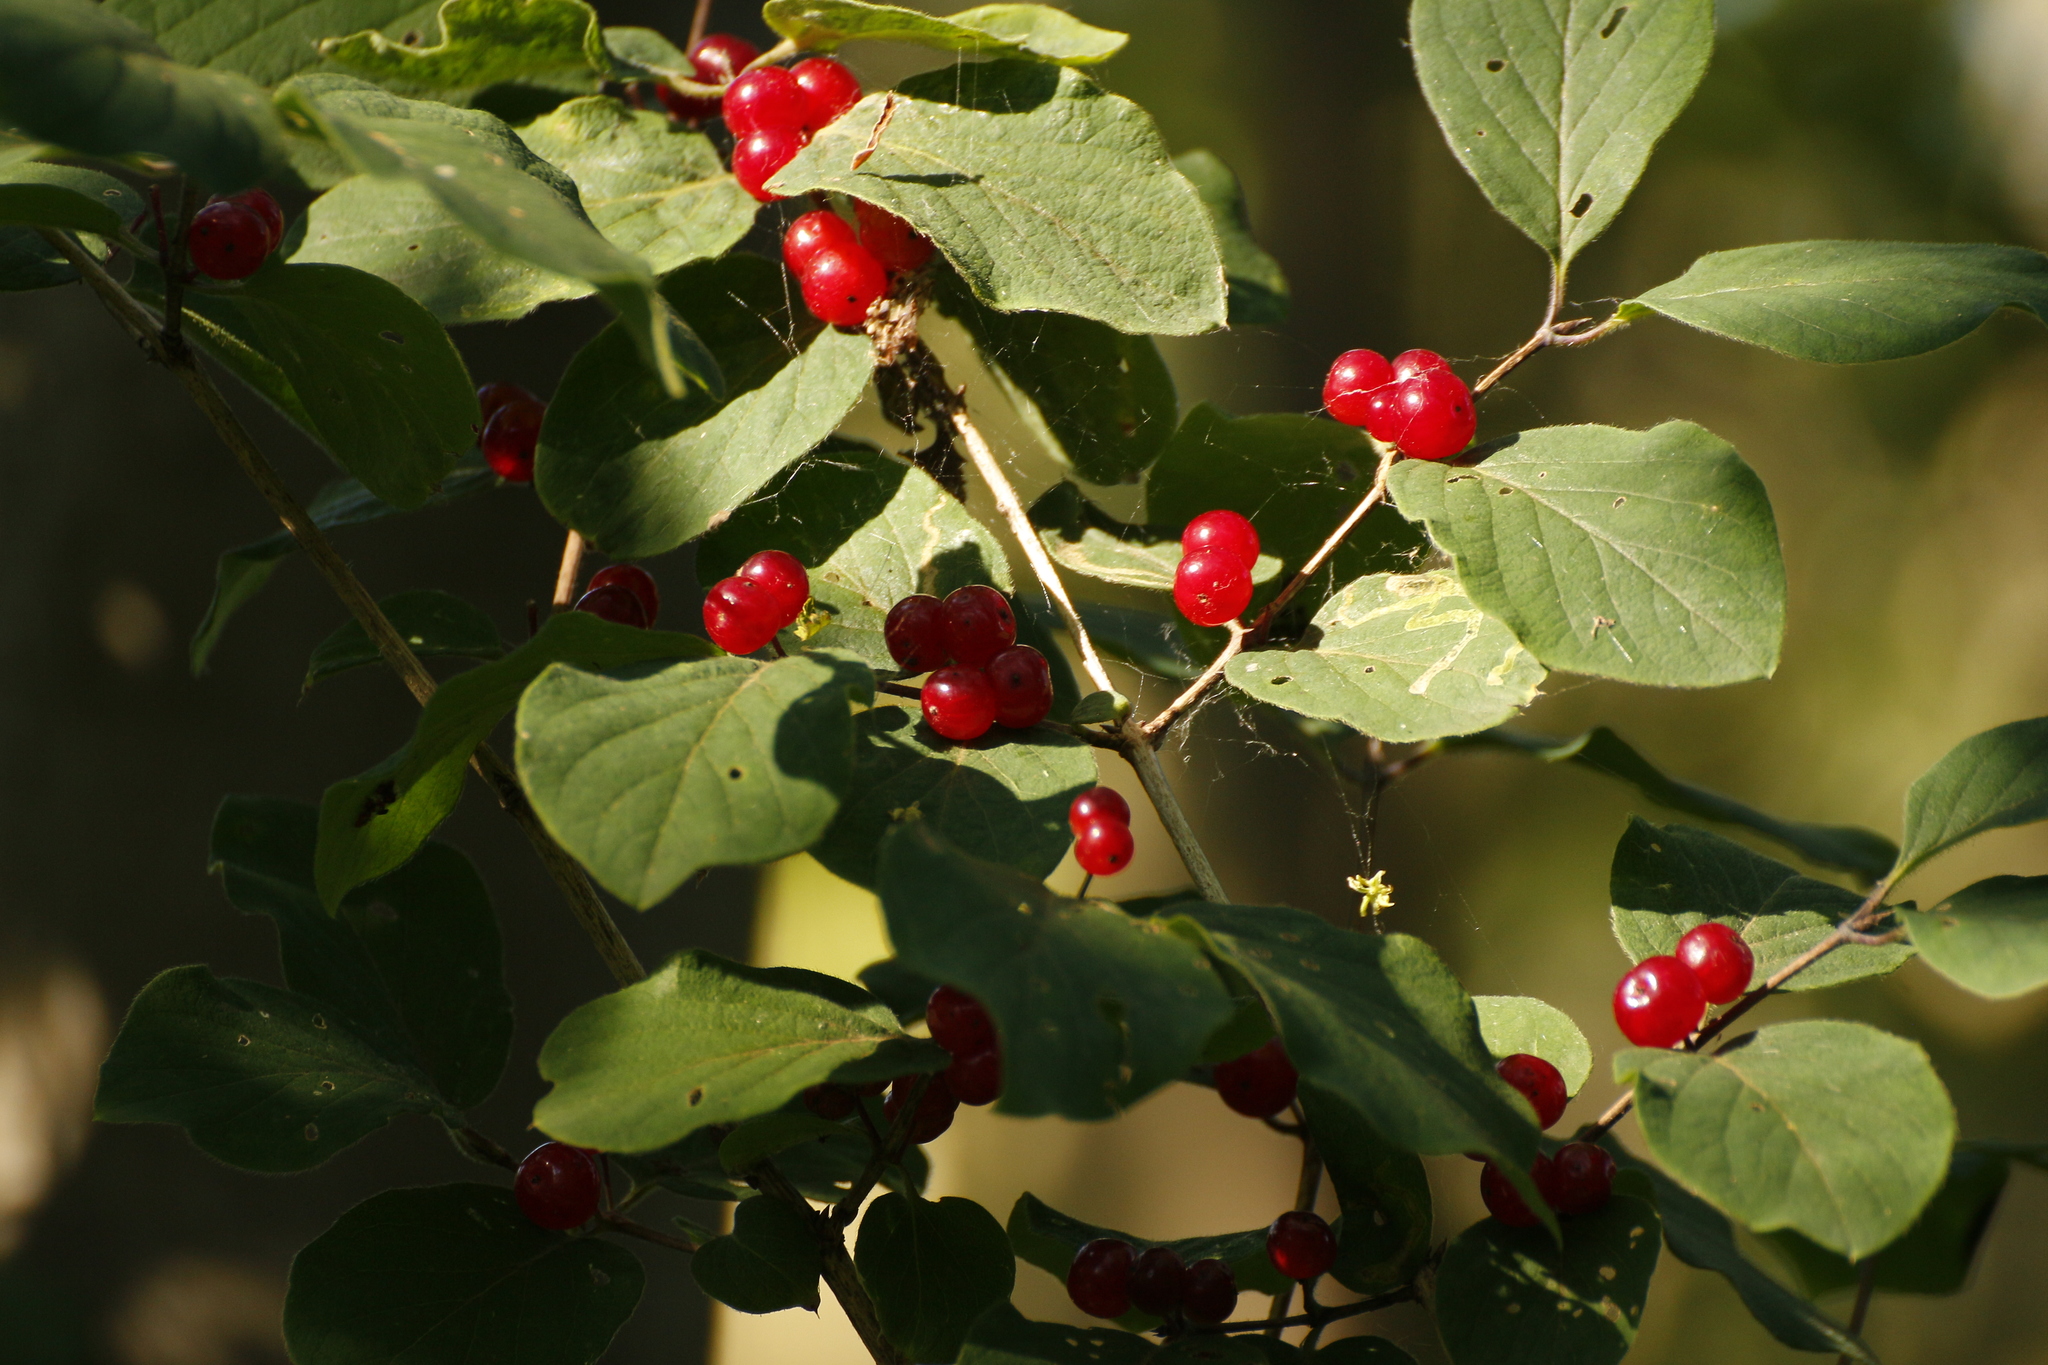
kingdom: Plantae
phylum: Tracheophyta
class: Magnoliopsida
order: Dipsacales
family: Caprifoliaceae
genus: Lonicera
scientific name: Lonicera xylosteum
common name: Fly honeysuckle
